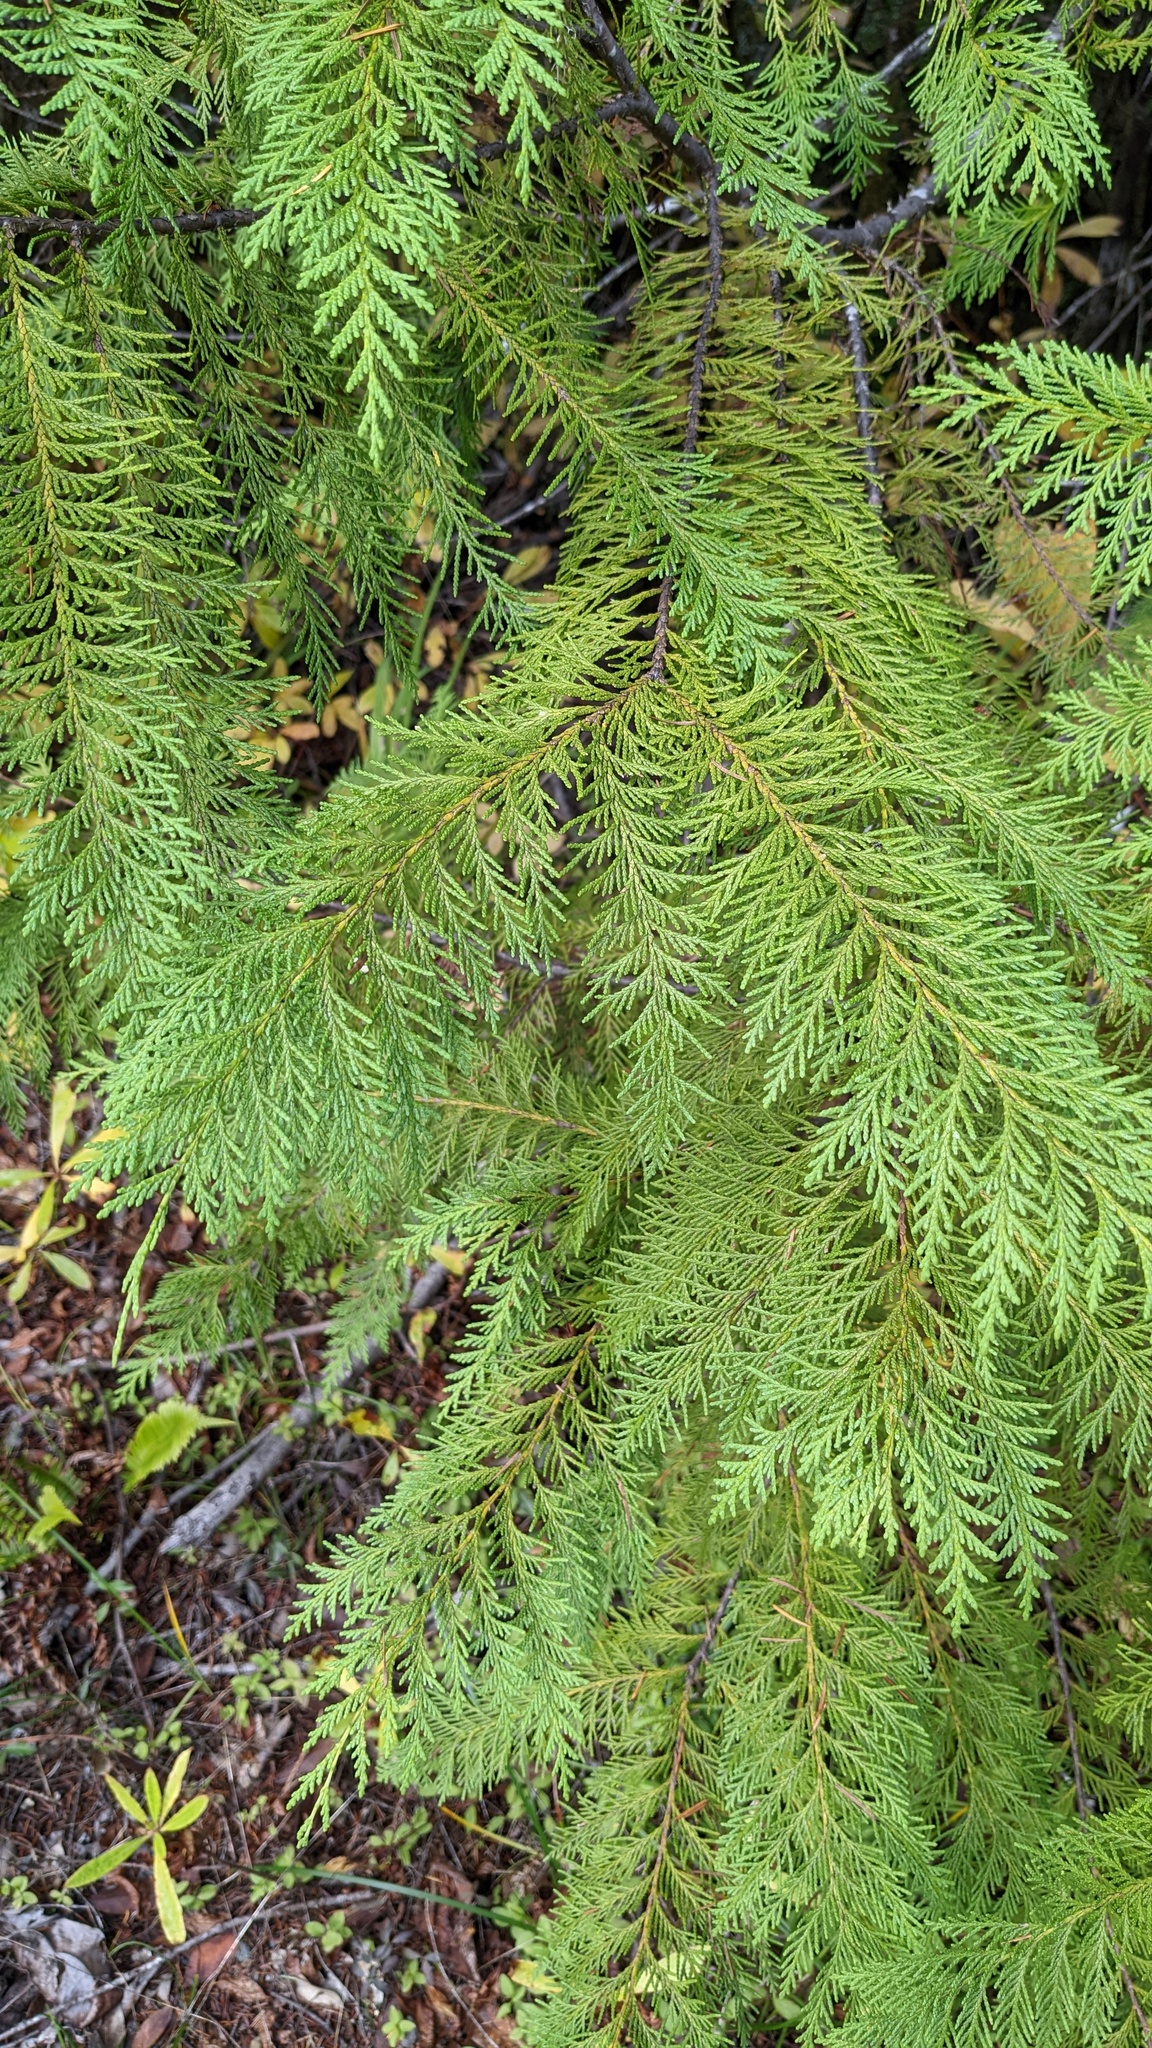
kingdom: Plantae
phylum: Tracheophyta
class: Pinopsida
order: Pinales
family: Cupressaceae
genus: Chamaecyparis
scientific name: Chamaecyparis lawsoniana
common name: Lawson's cypress
